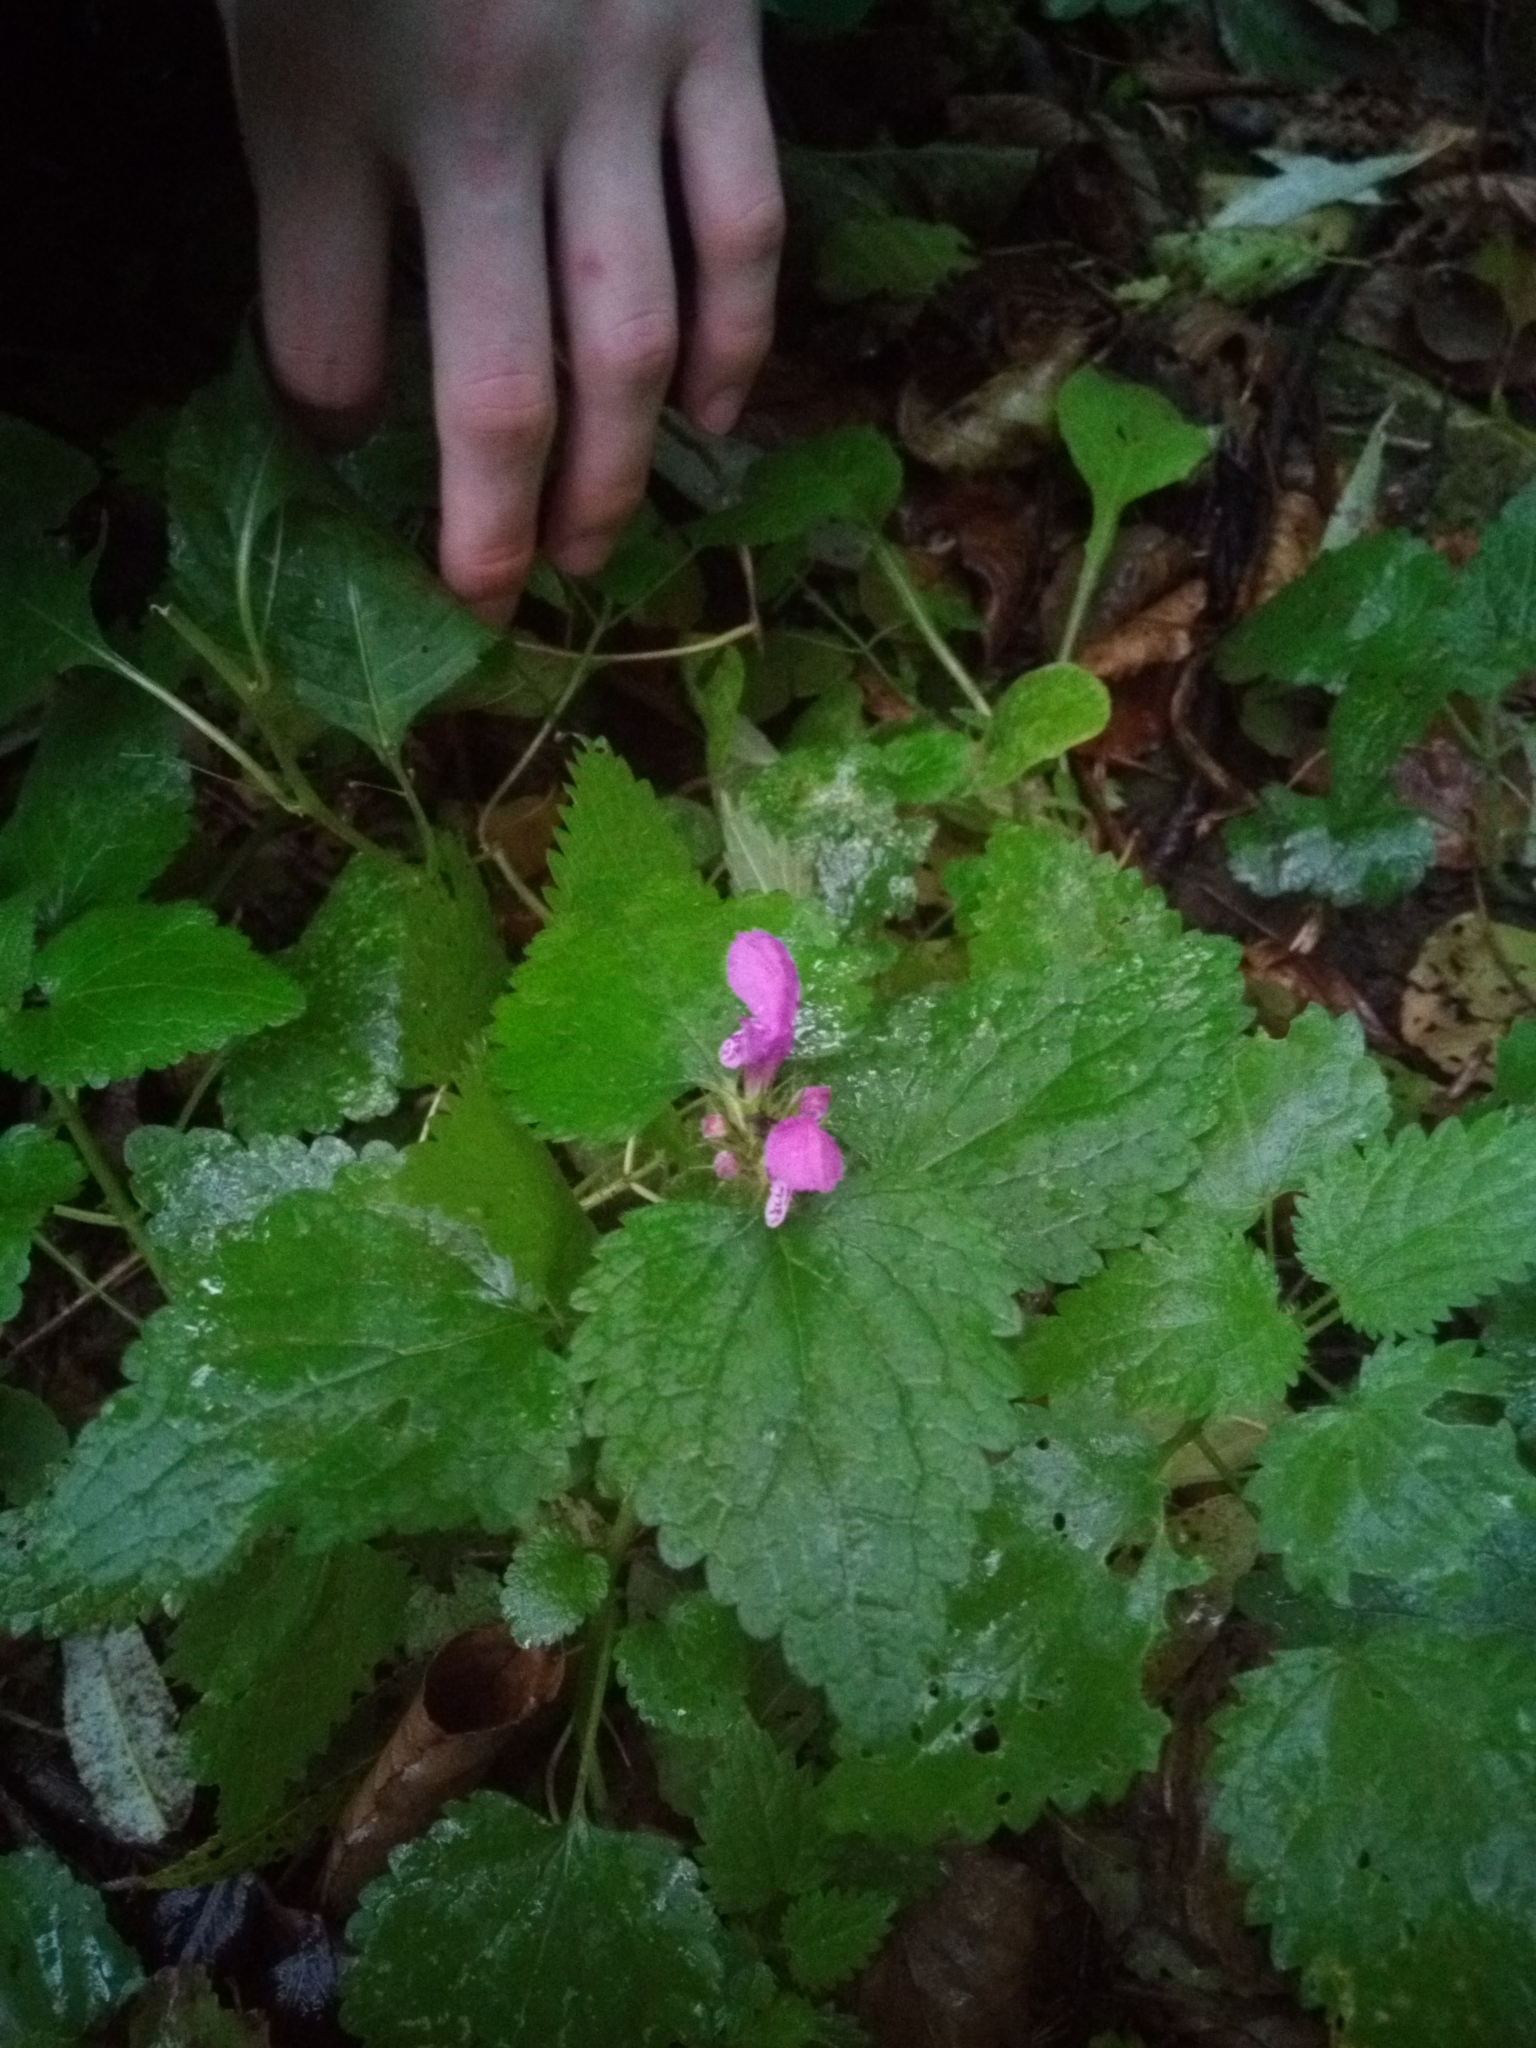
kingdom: Plantae
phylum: Tracheophyta
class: Magnoliopsida
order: Lamiales
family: Lamiaceae
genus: Lamium
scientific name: Lamium maculatum
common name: Spotted dead-nettle
